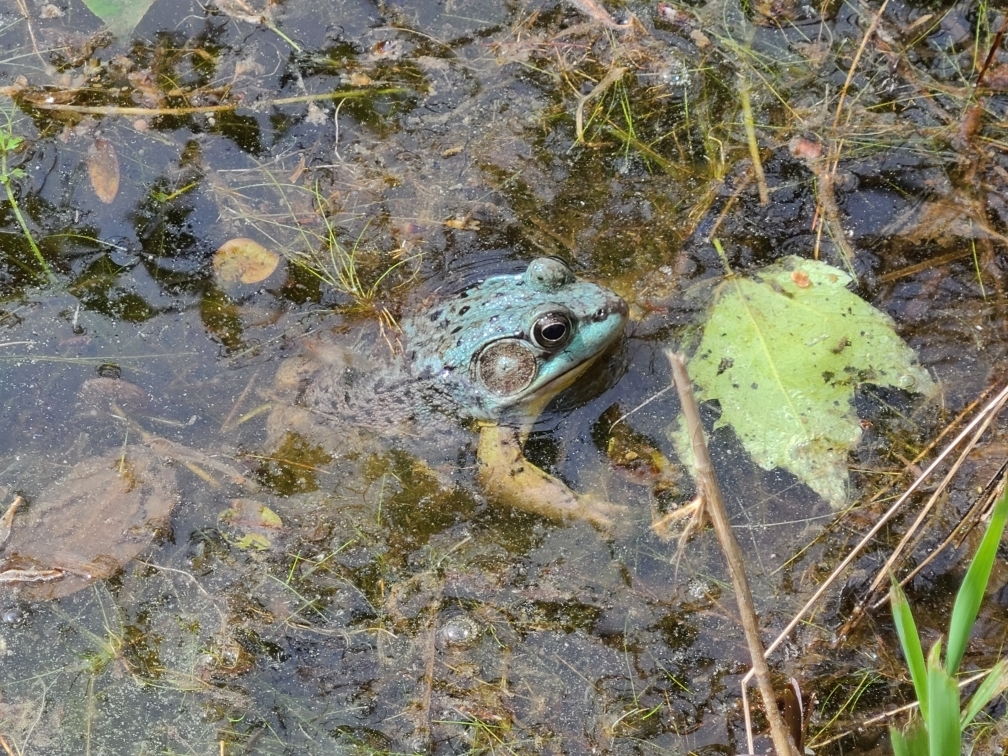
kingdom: Animalia
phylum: Chordata
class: Amphibia
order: Anura
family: Ranidae
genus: Lithobates
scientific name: Lithobates clamitans
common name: Green frog
